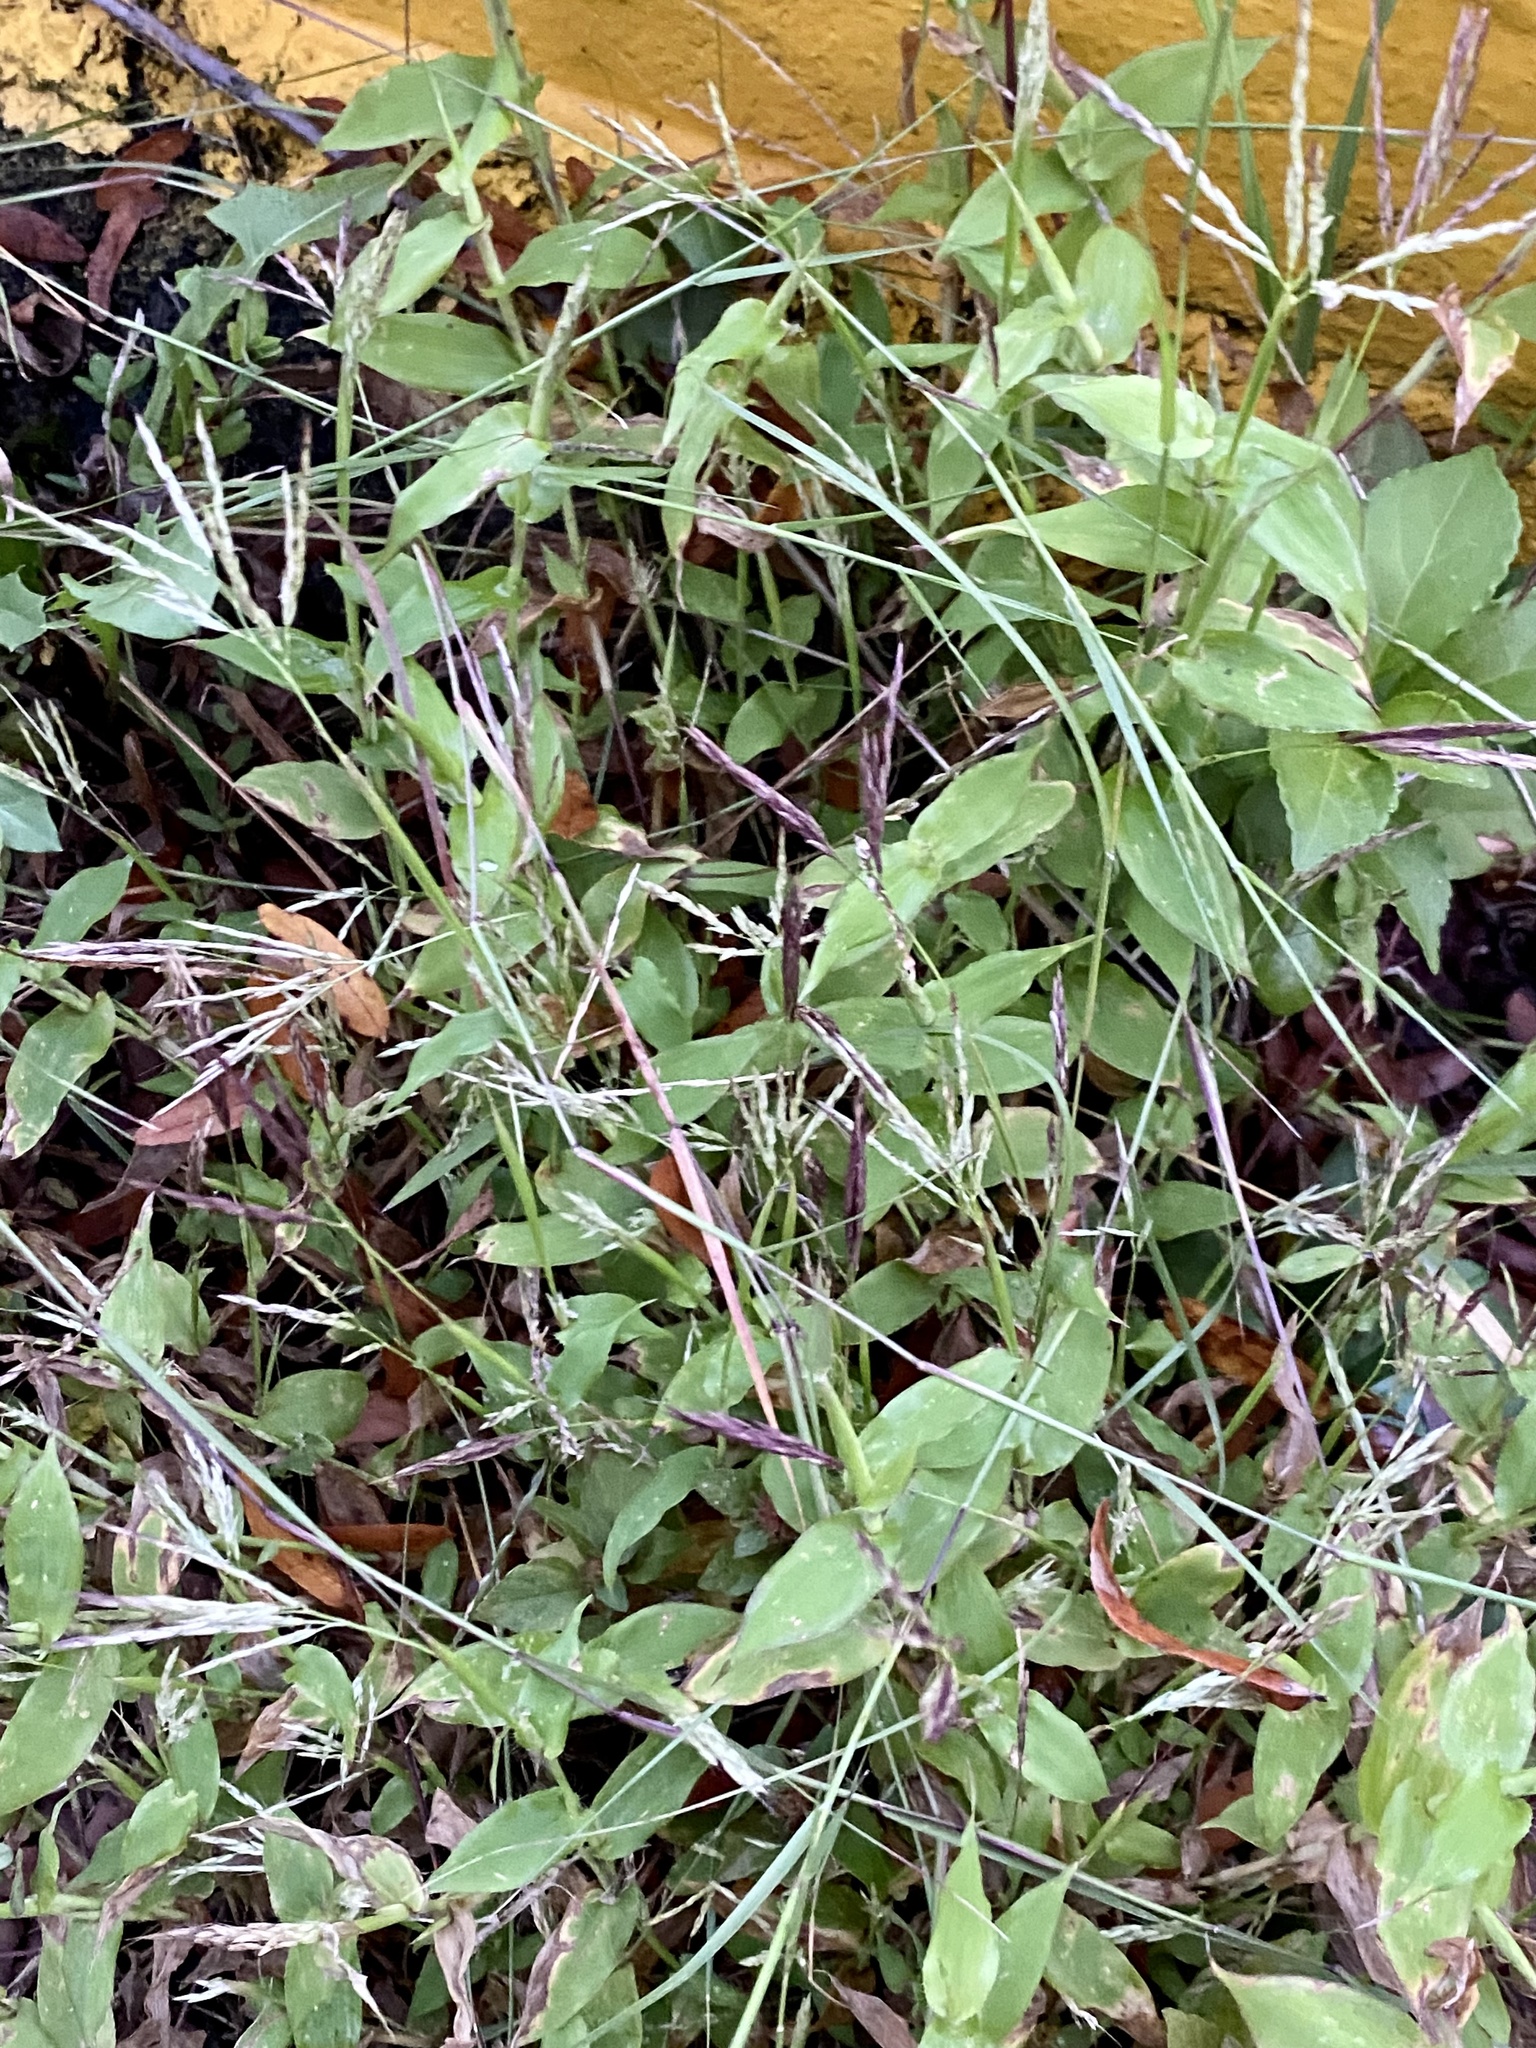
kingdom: Plantae
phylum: Tracheophyta
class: Liliopsida
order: Poales
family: Poaceae
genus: Arthraxon
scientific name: Arthraxon hispidus
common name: Small carpgrass
